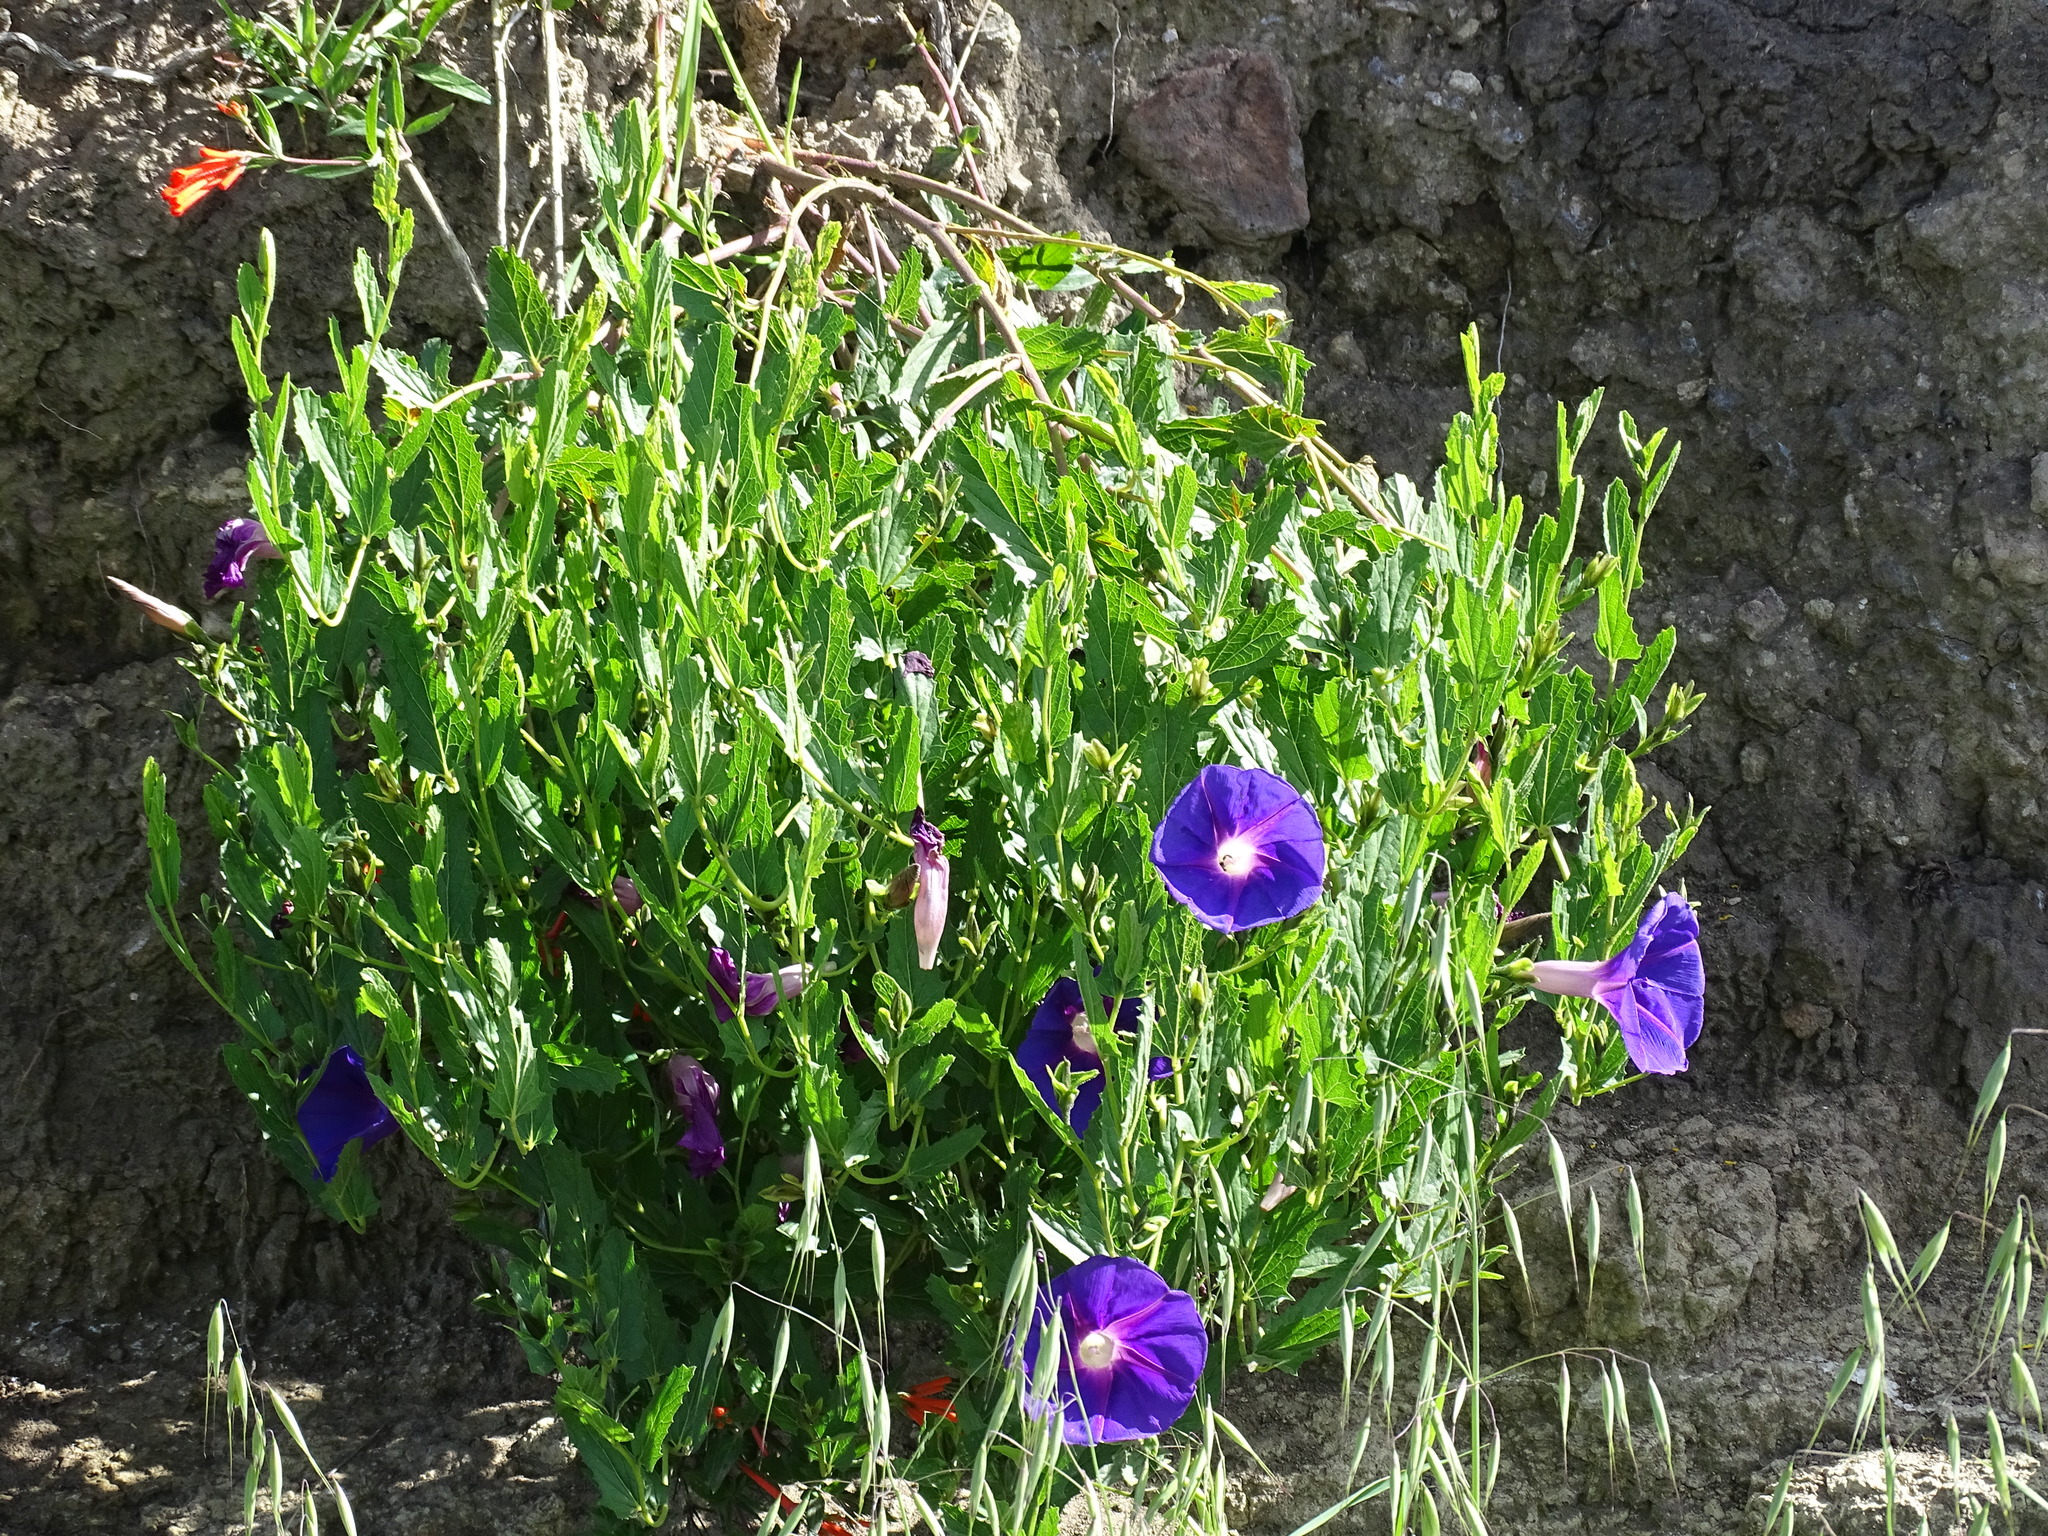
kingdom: Plantae
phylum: Tracheophyta
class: Magnoliopsida
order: Solanales
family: Convolvulaceae
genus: Ipomoea
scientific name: Ipomoea stans
